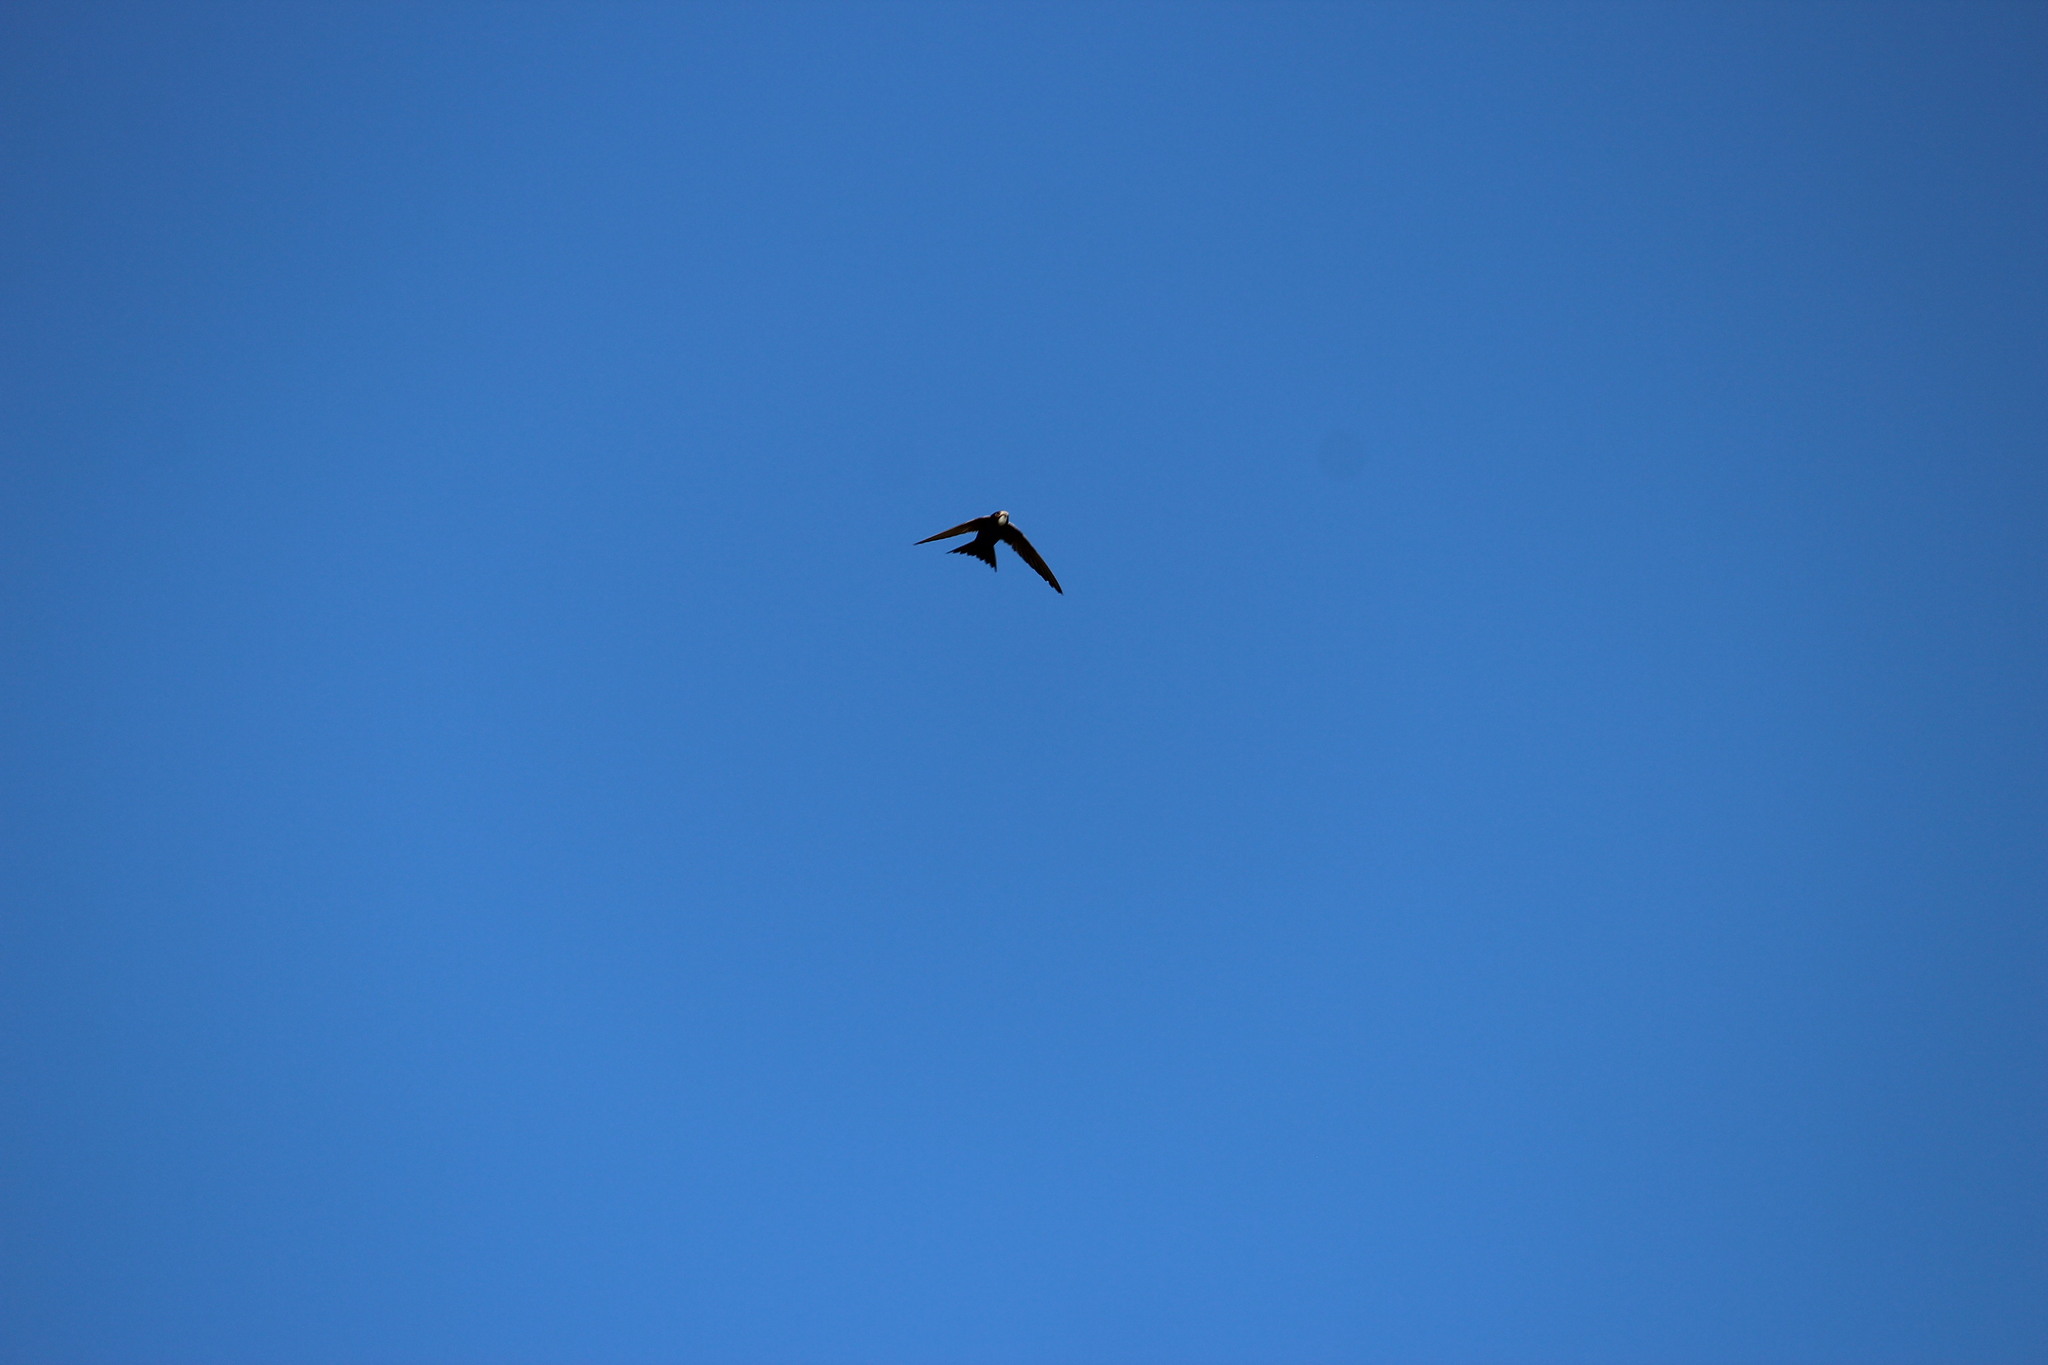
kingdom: Animalia
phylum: Chordata
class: Aves
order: Apodiformes
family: Apodidae
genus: Apus
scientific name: Apus caffer
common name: White-rumped swift
